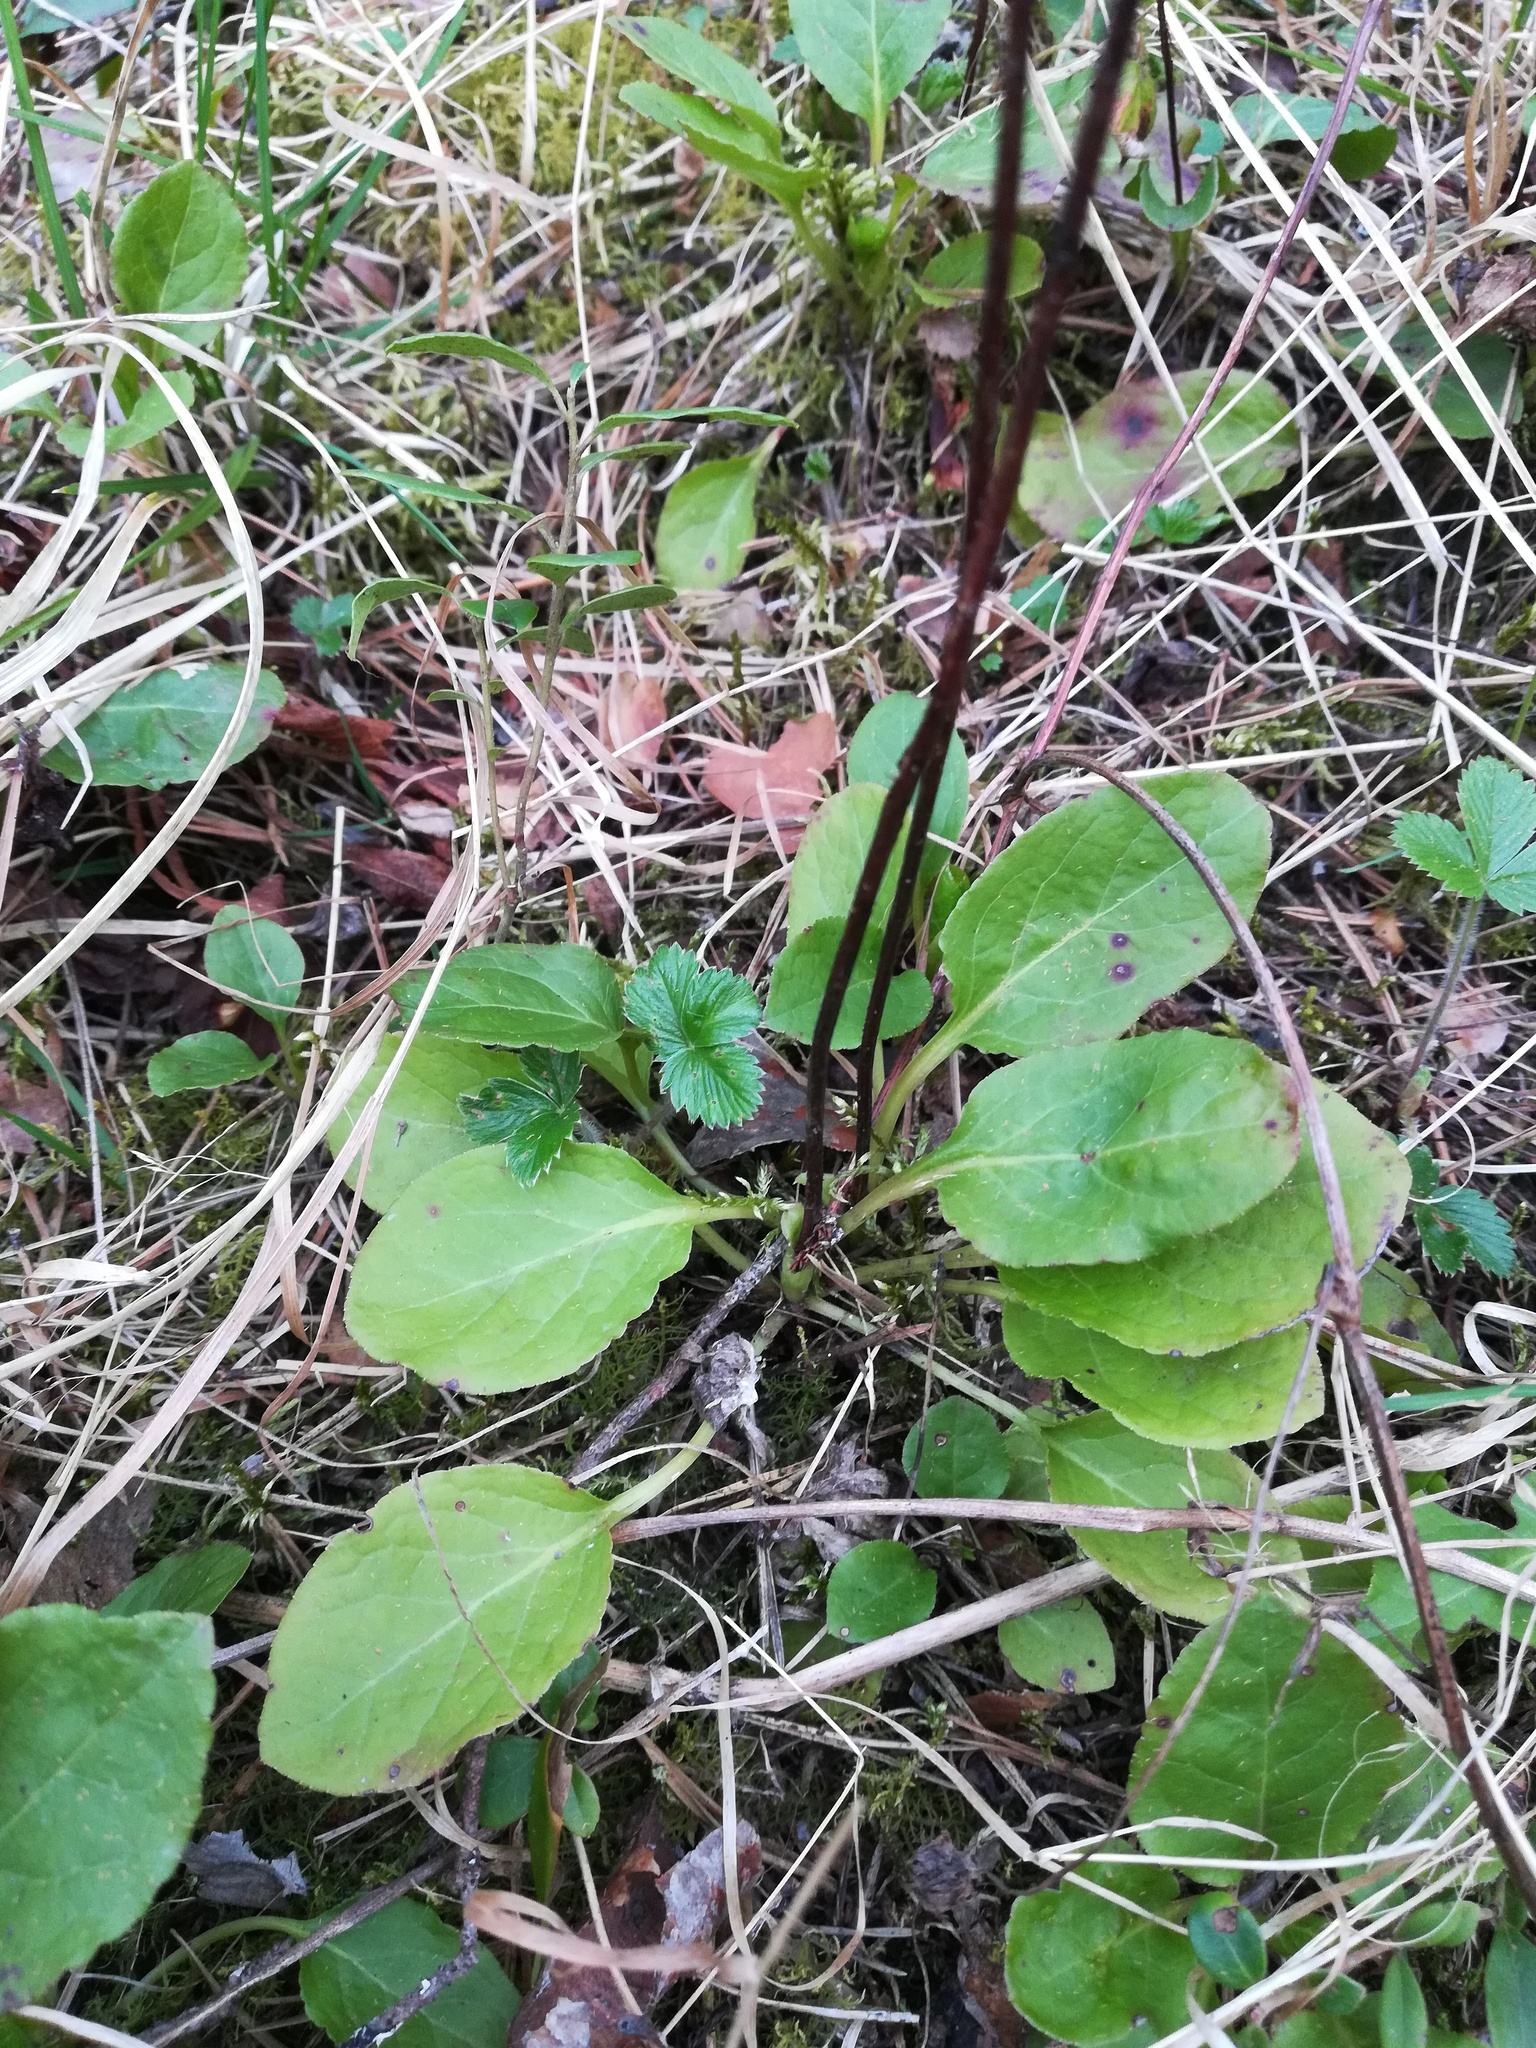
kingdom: Plantae
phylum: Tracheophyta
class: Magnoliopsida
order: Ericales
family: Ericaceae
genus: Pyrola
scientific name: Pyrola minor
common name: Common wintergreen
